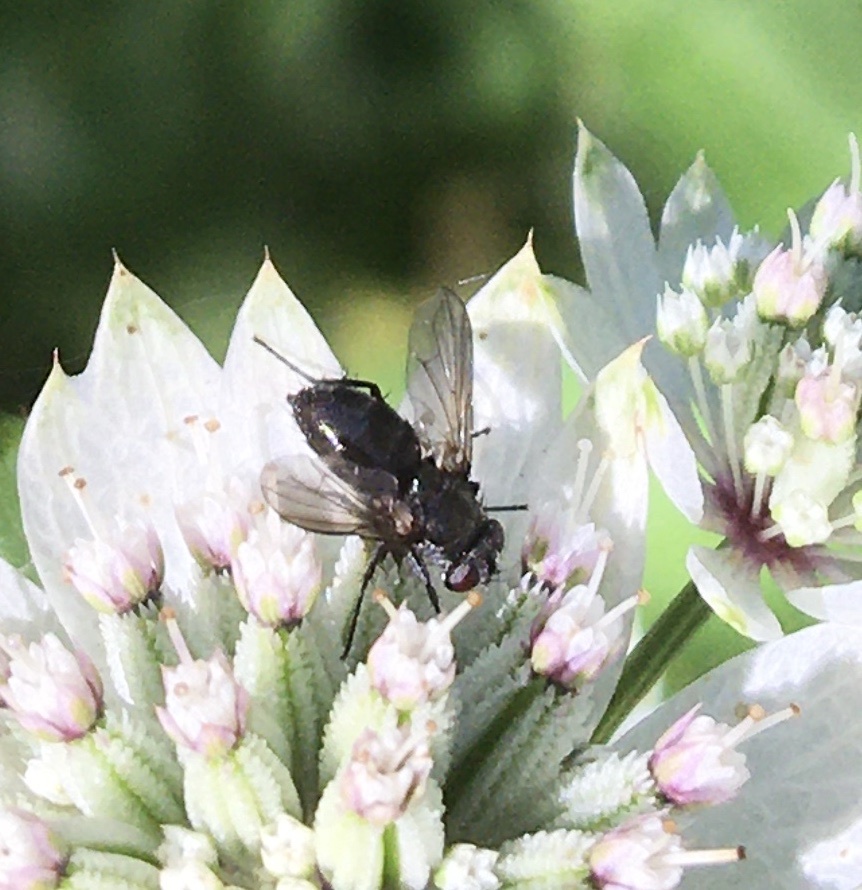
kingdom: Animalia
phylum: Arthropoda
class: Insecta
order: Diptera
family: Calliphoridae
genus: Rhinophora
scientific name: Rhinophora lepida
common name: Pouting woodlouse-fly
